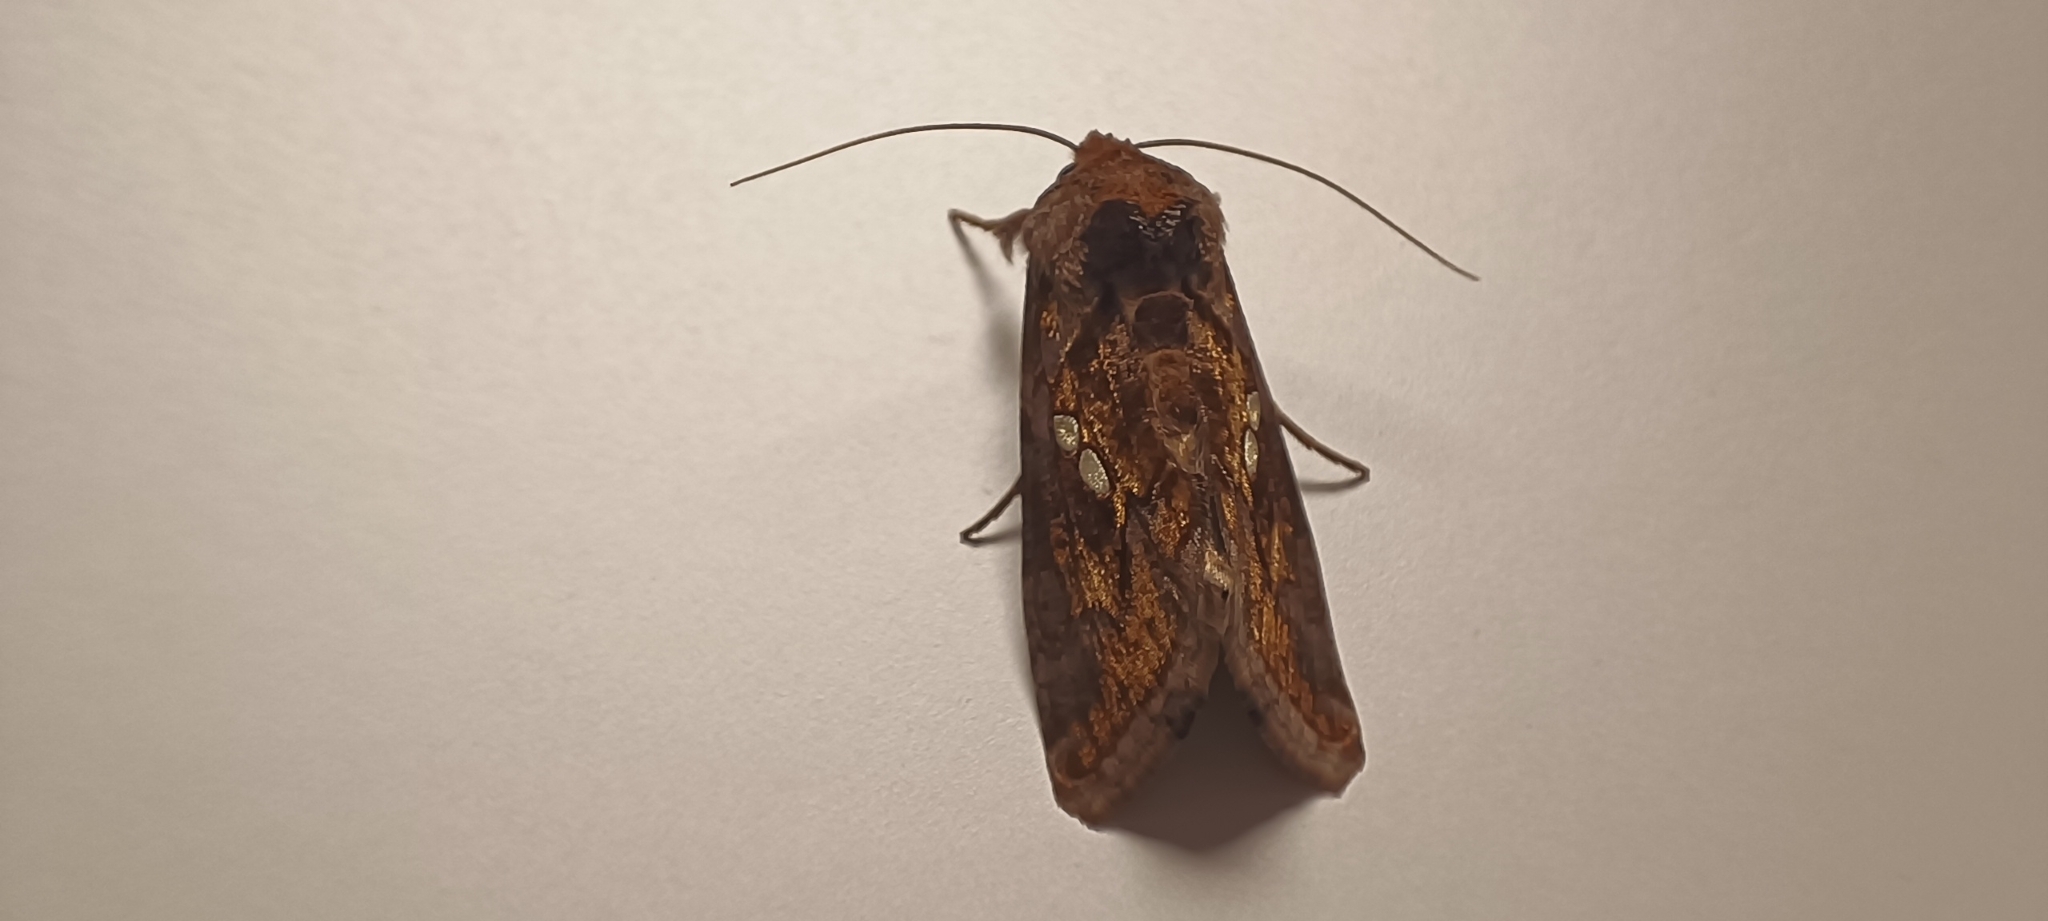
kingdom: Animalia
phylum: Arthropoda
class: Insecta
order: Lepidoptera
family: Noctuidae
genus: Chrysodeixis
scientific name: Chrysodeixis chalcites
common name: Golden twin-spot
